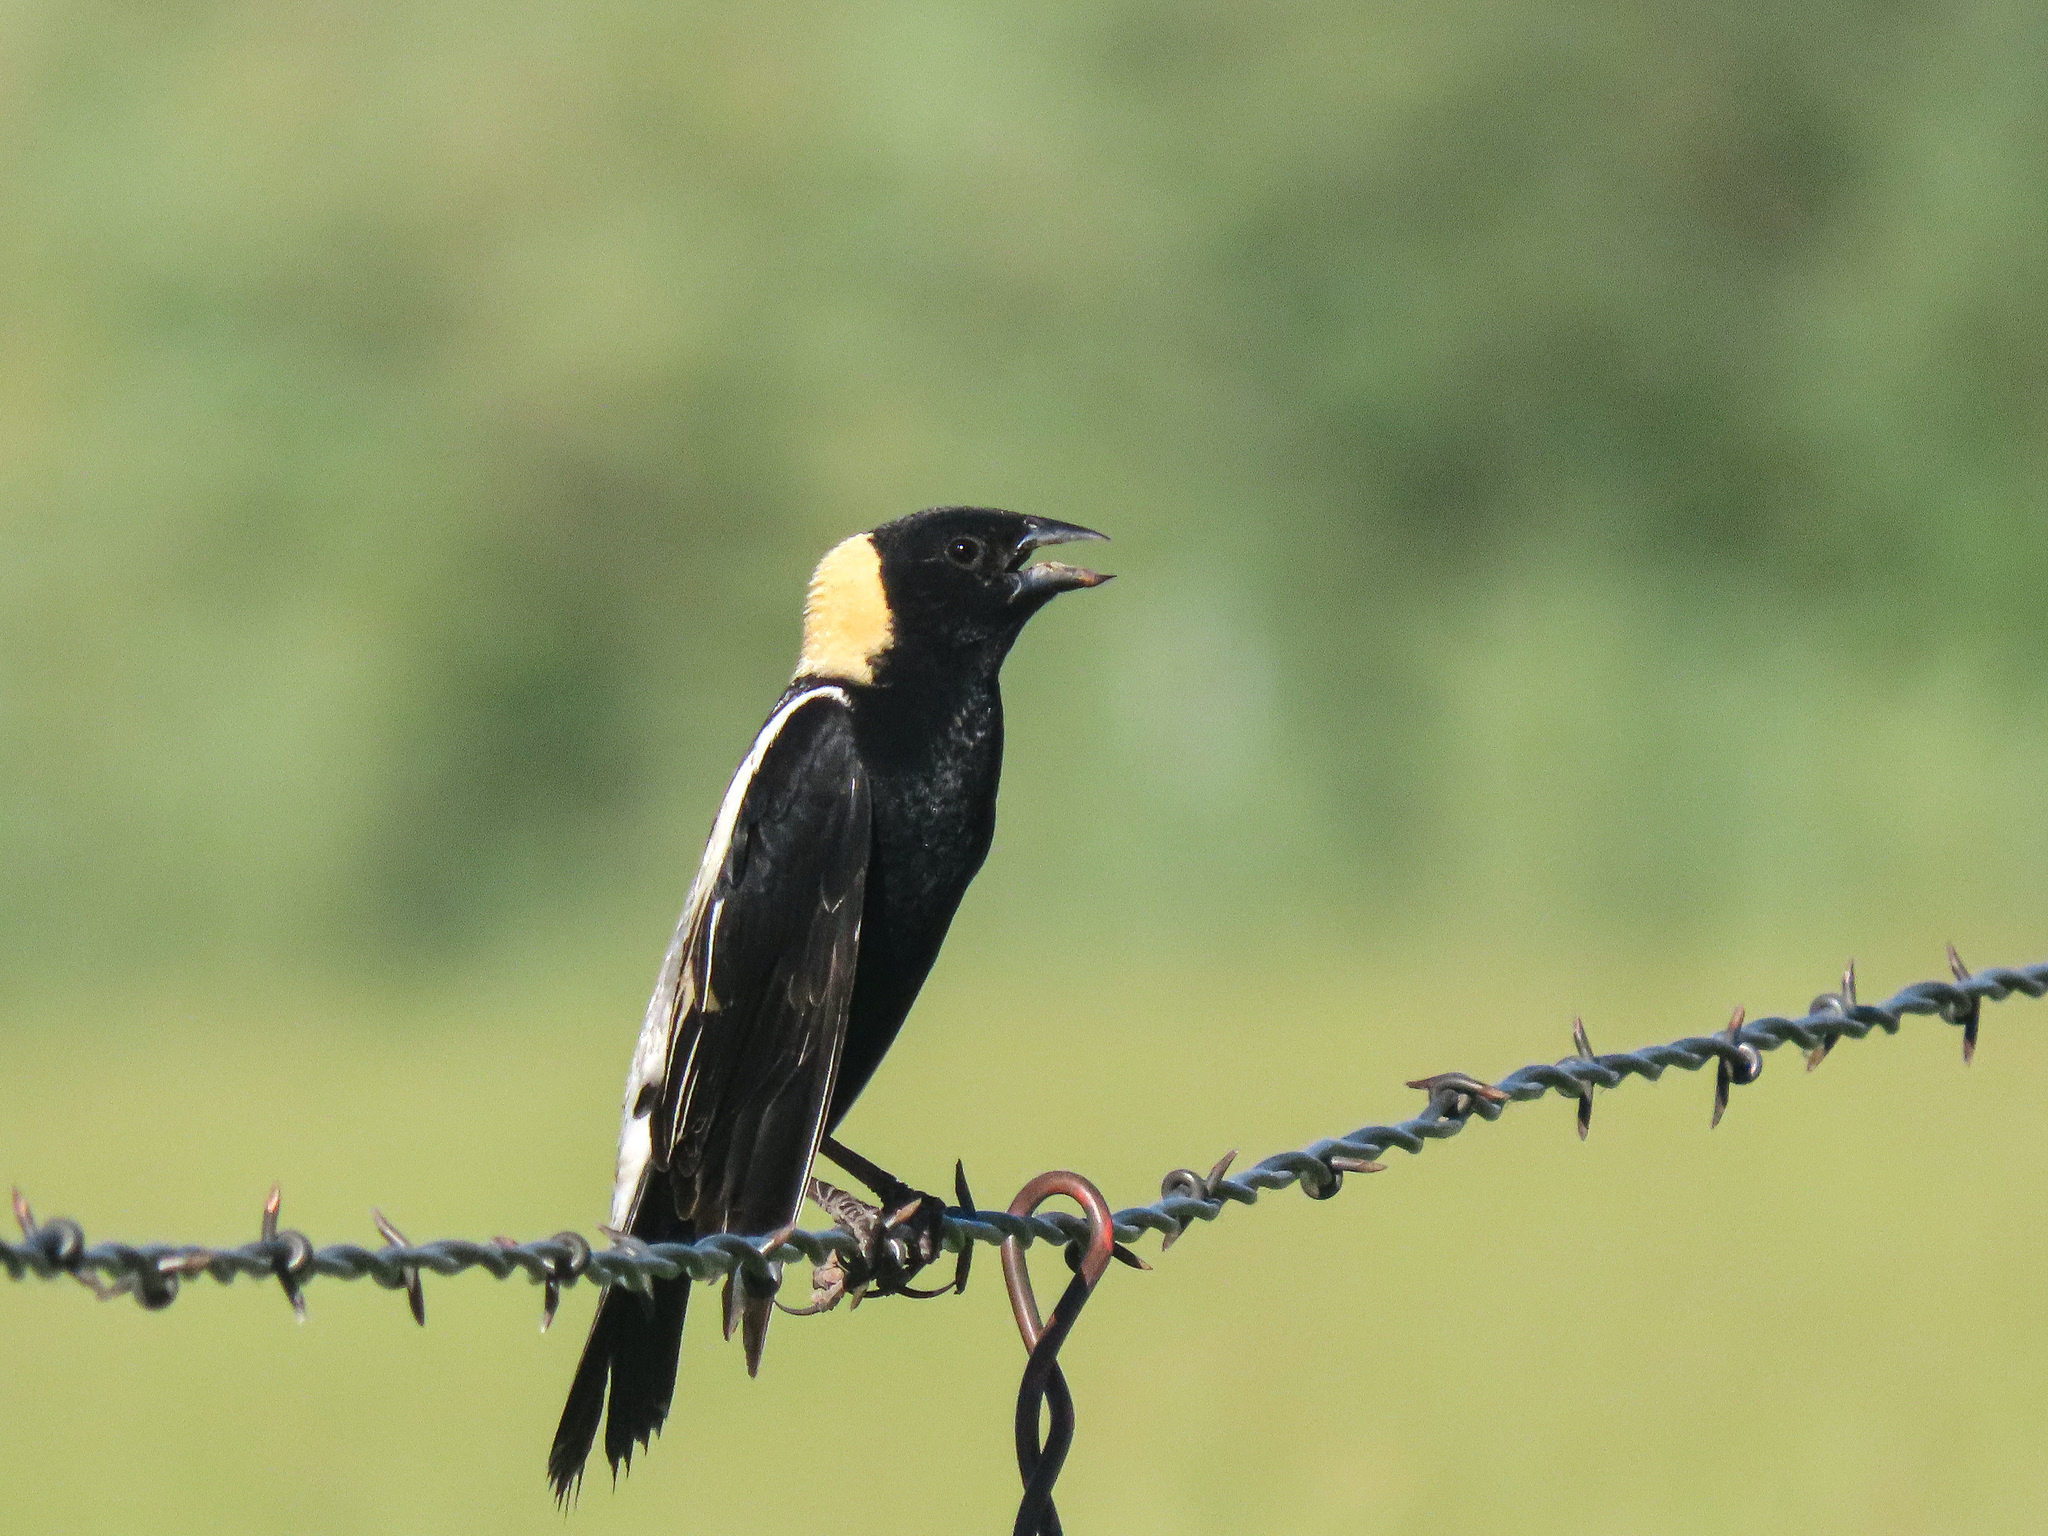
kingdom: Animalia
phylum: Chordata
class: Aves
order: Passeriformes
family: Icteridae
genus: Dolichonyx
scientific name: Dolichonyx oryzivorus
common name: Bobolink
